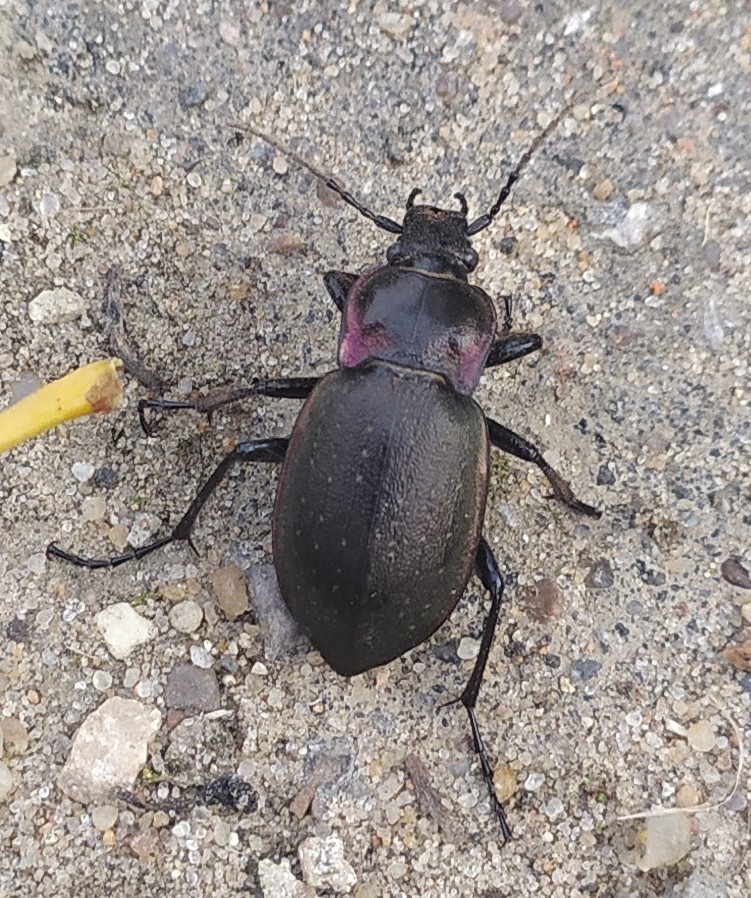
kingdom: Animalia
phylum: Arthropoda
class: Insecta
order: Coleoptera
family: Carabidae
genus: Carabus
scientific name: Carabus nemoralis
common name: European ground beetle
